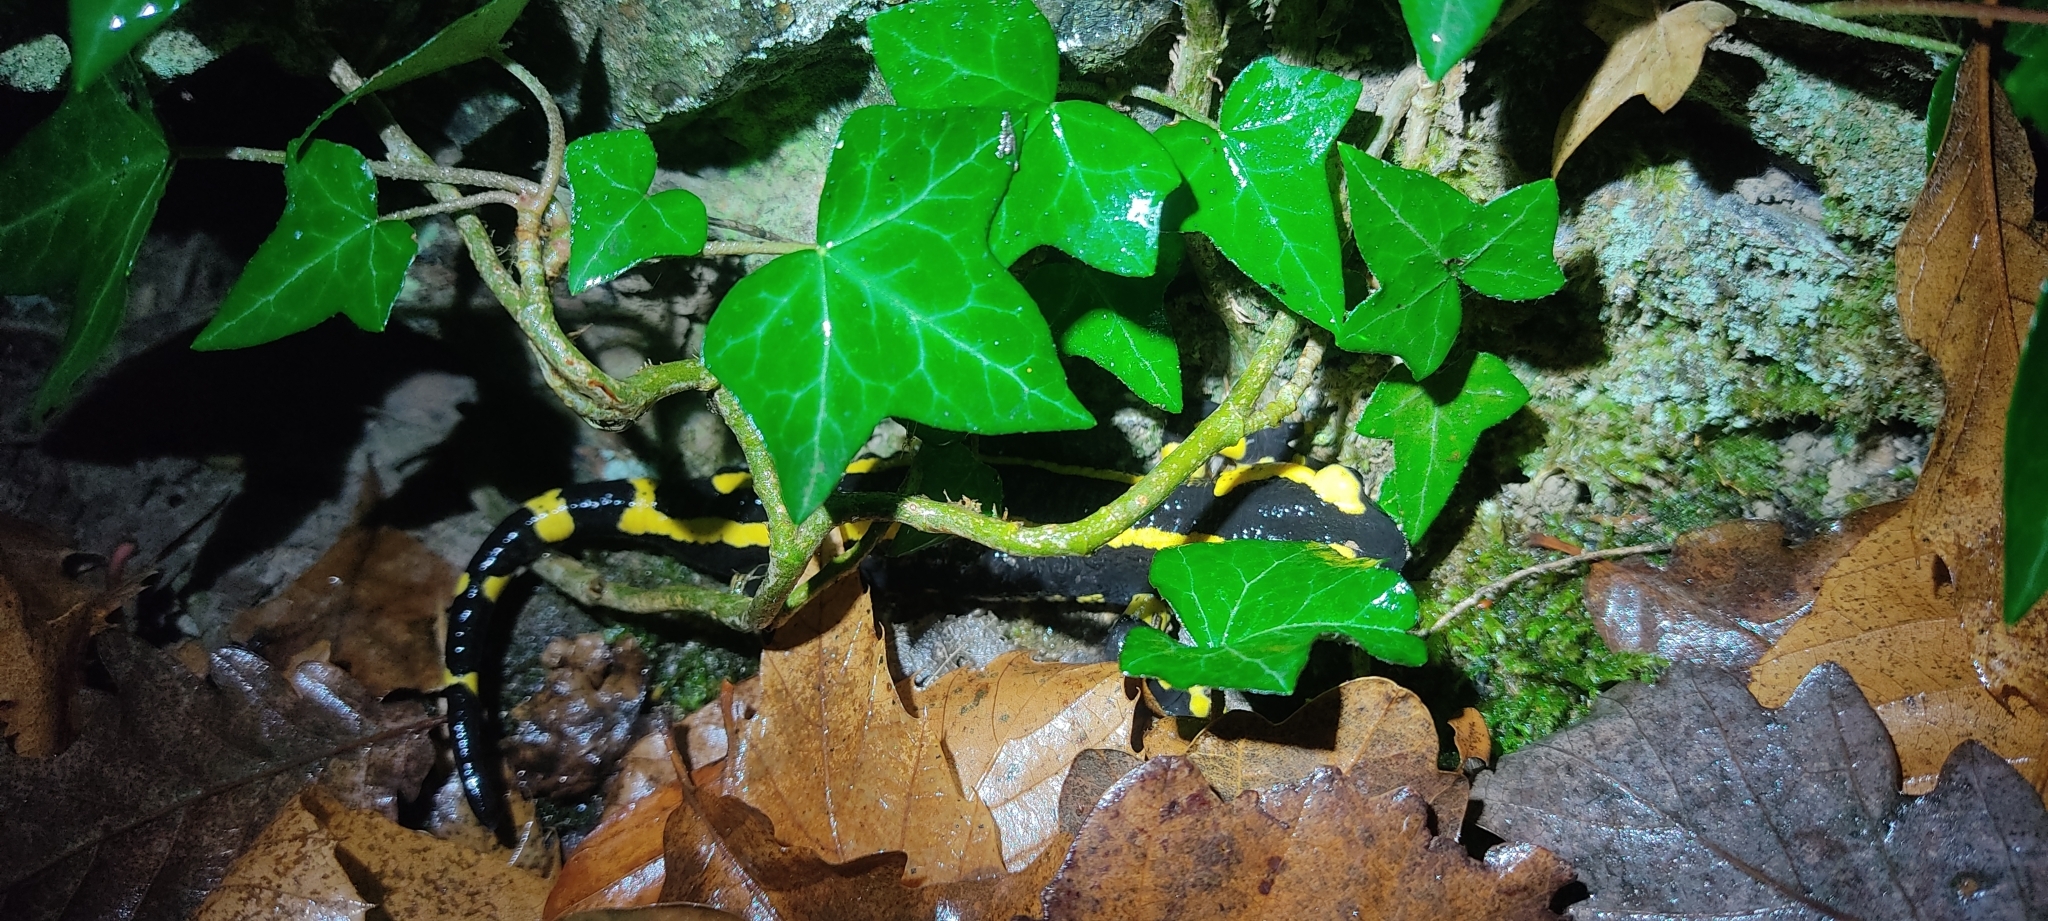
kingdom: Animalia
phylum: Chordata
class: Amphibia
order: Caudata
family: Salamandridae
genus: Salamandra
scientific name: Salamandra salamandra
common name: Fire salamander
